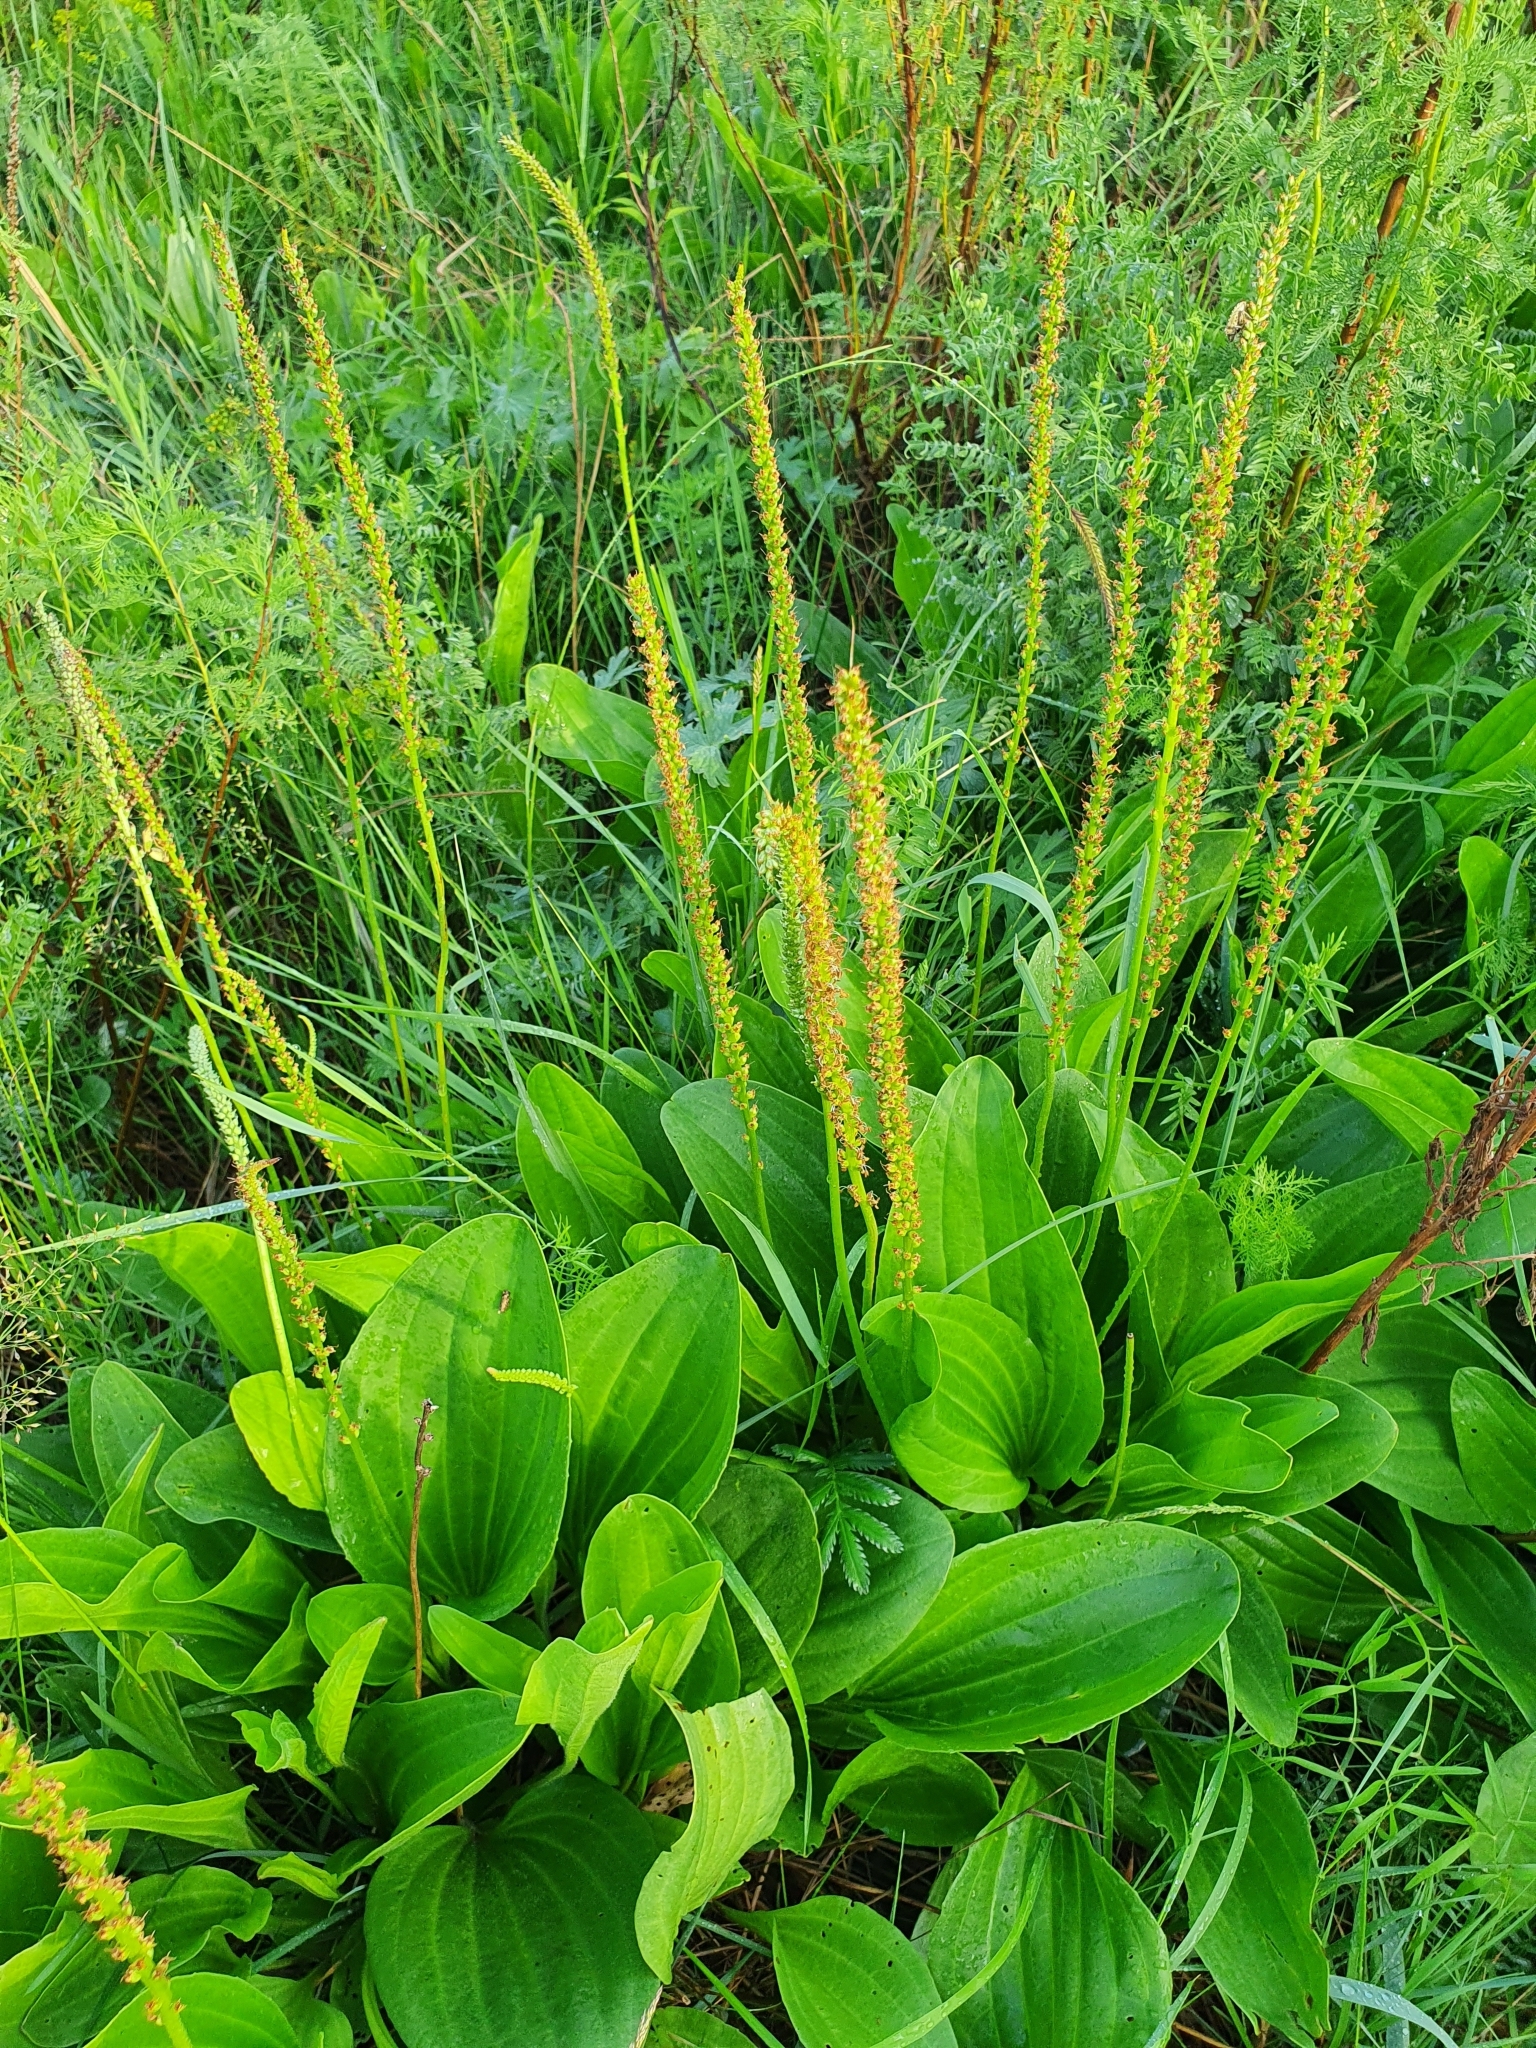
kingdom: Plantae
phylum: Tracheophyta
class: Magnoliopsida
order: Lamiales
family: Plantaginaceae
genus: Plantago
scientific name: Plantago cornuti
